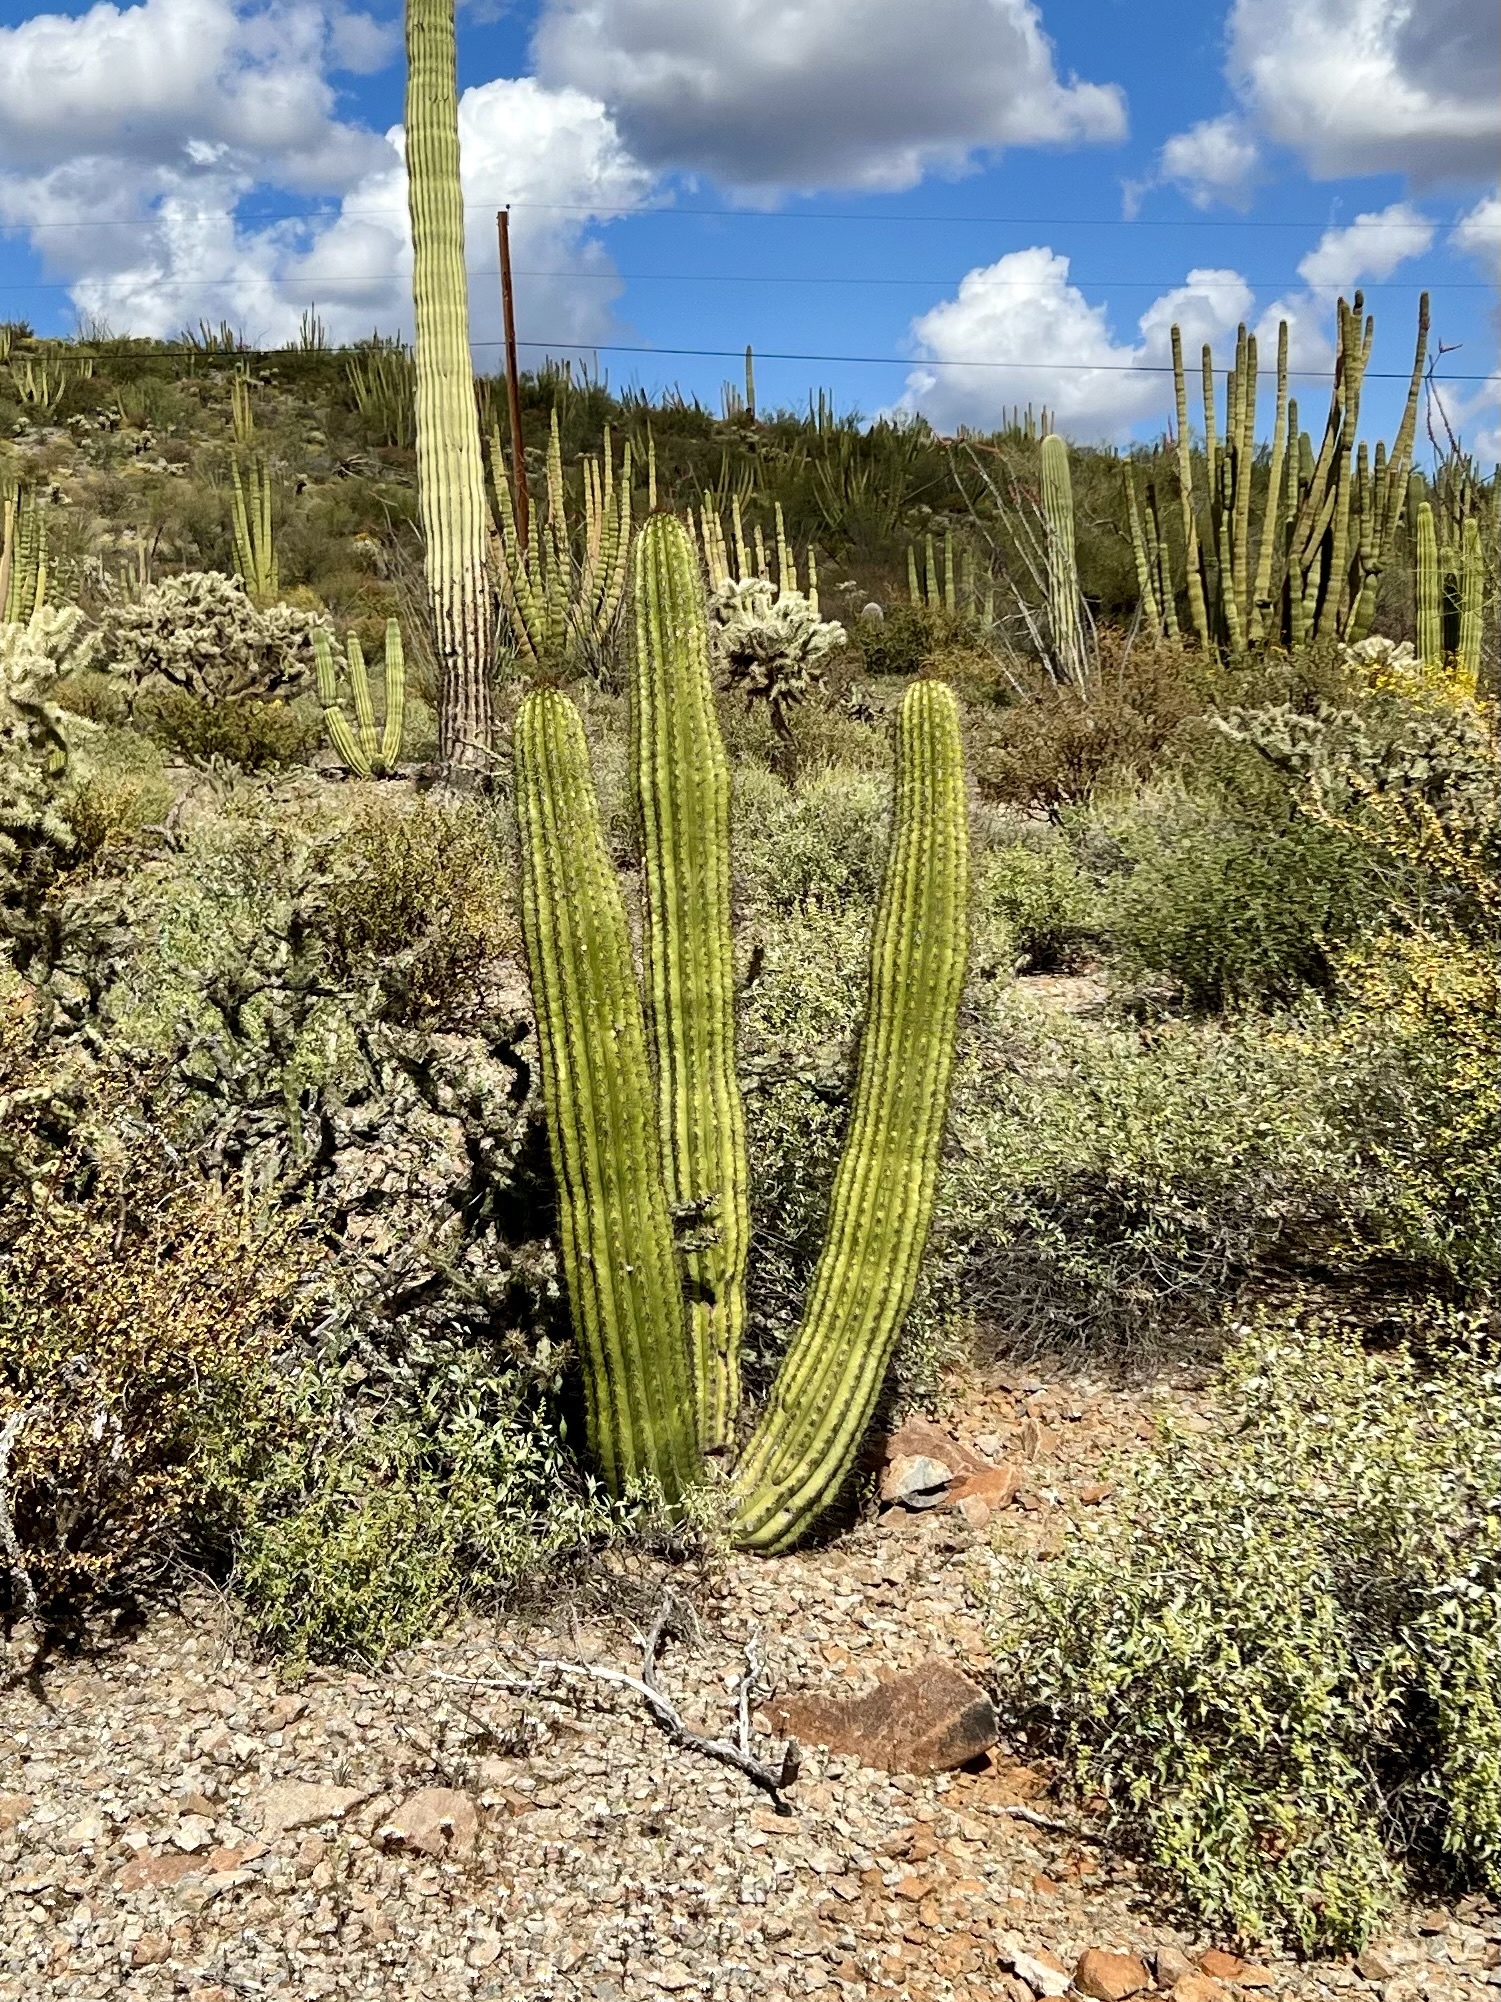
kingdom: Plantae
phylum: Tracheophyta
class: Magnoliopsida
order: Caryophyllales
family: Cactaceae
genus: Stenocereus
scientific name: Stenocereus thurberi
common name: Organ pipe cactus
